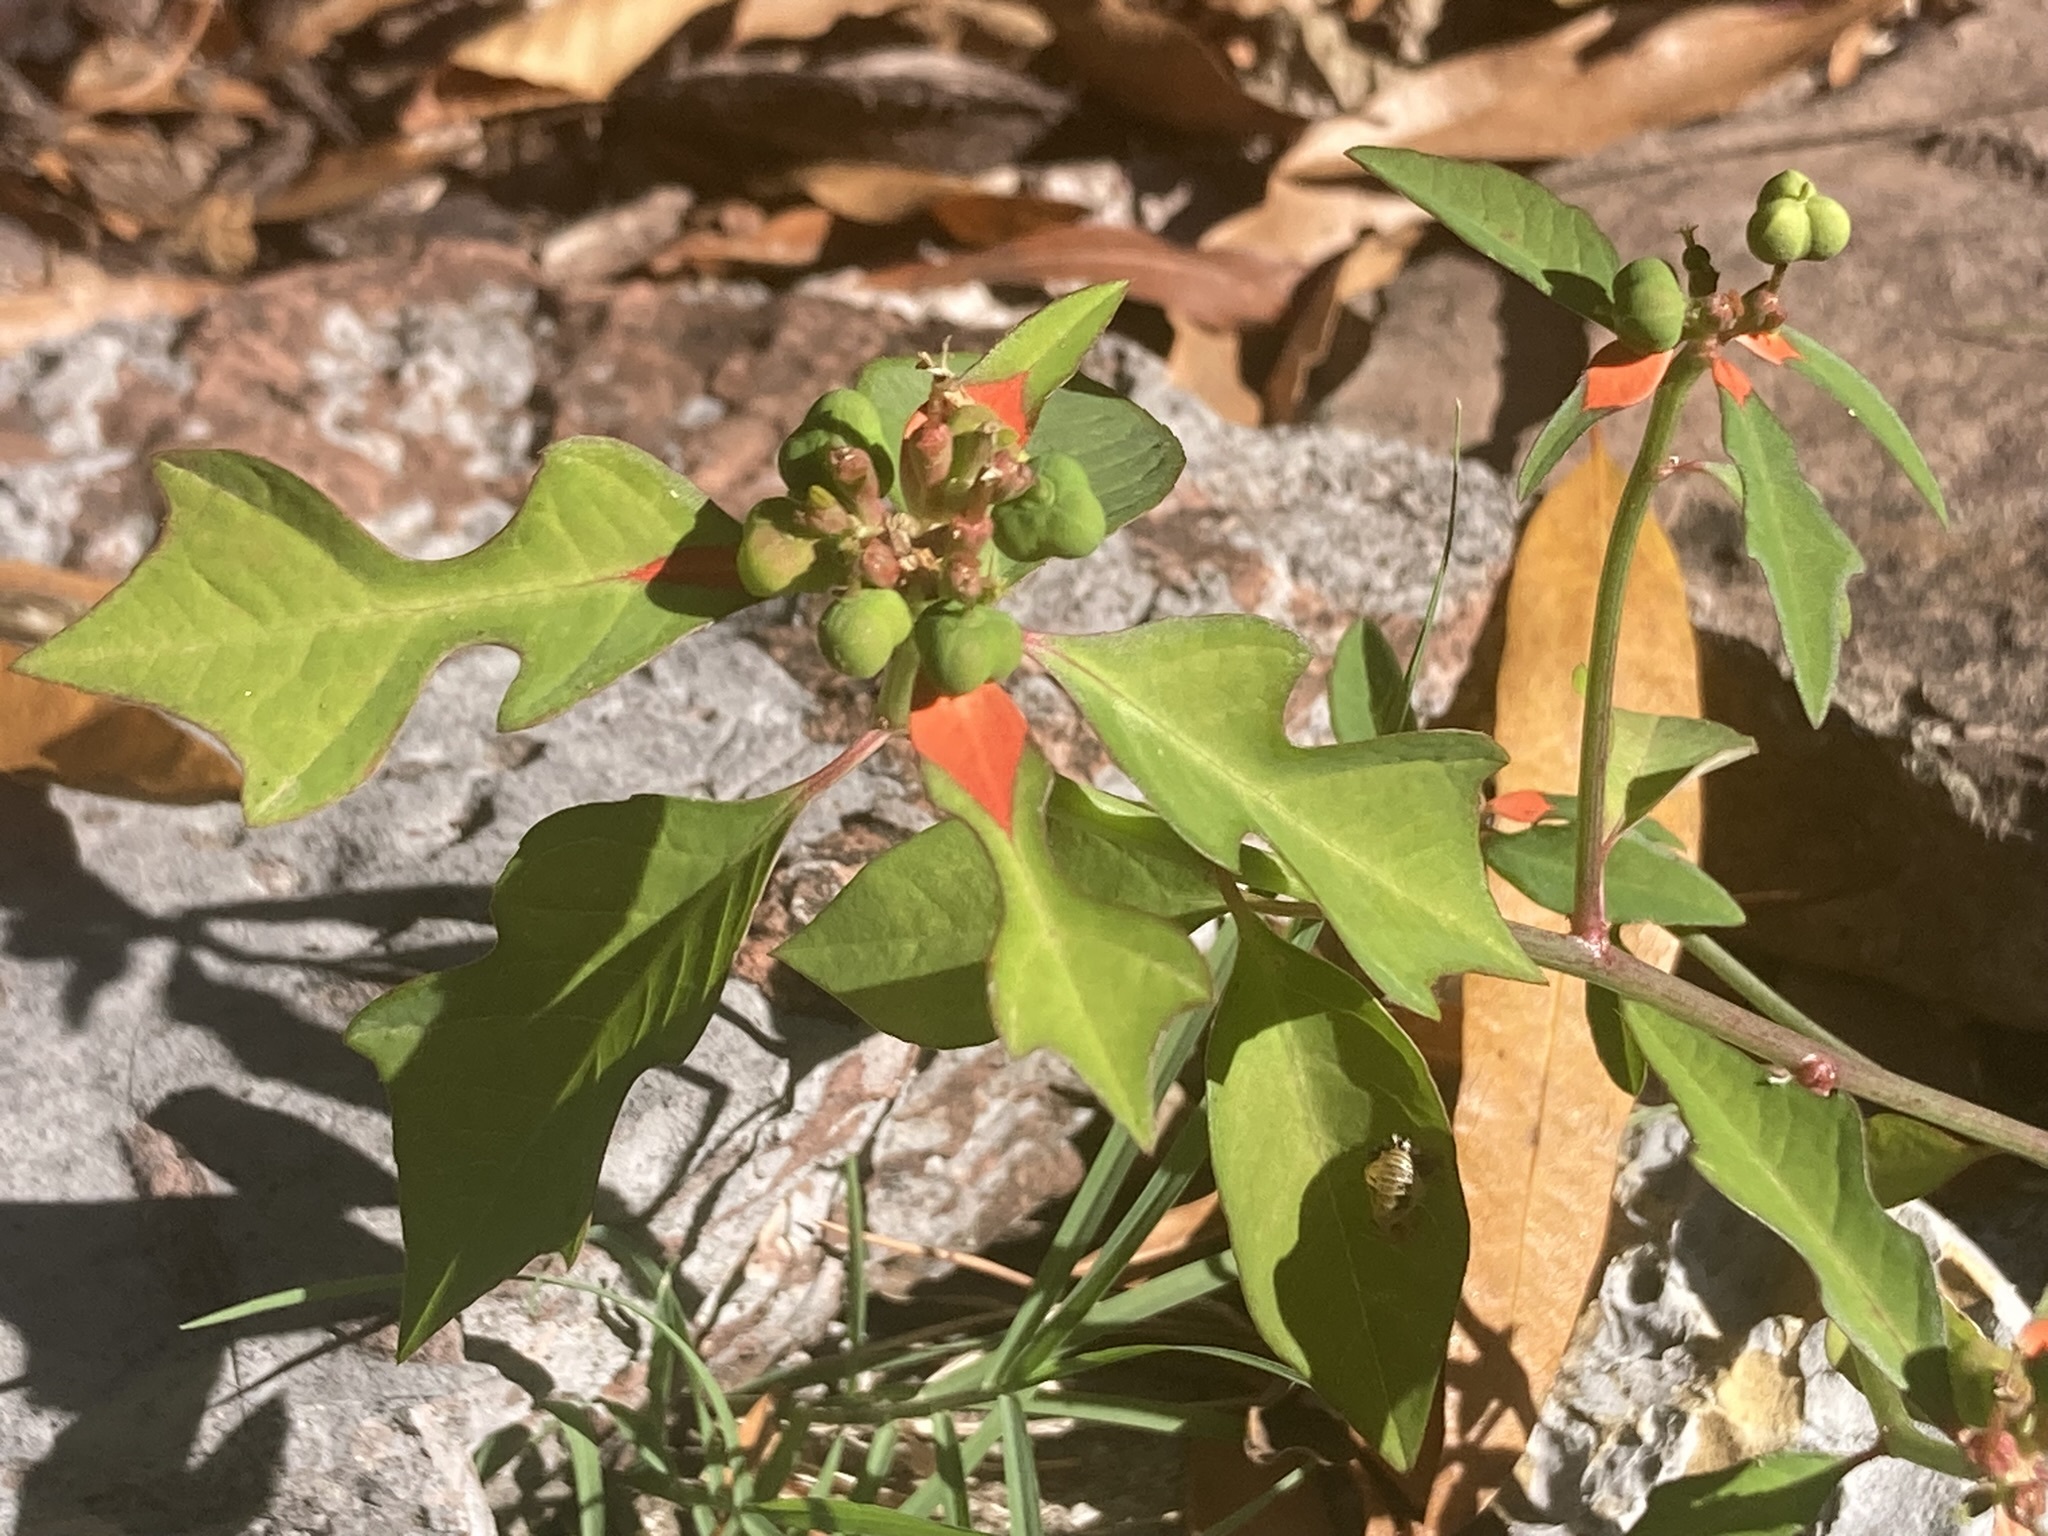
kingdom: Plantae
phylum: Tracheophyta
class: Magnoliopsida
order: Malpighiales
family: Euphorbiaceae
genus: Euphorbia
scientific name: Euphorbia heterophylla
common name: Mexican fireplant
